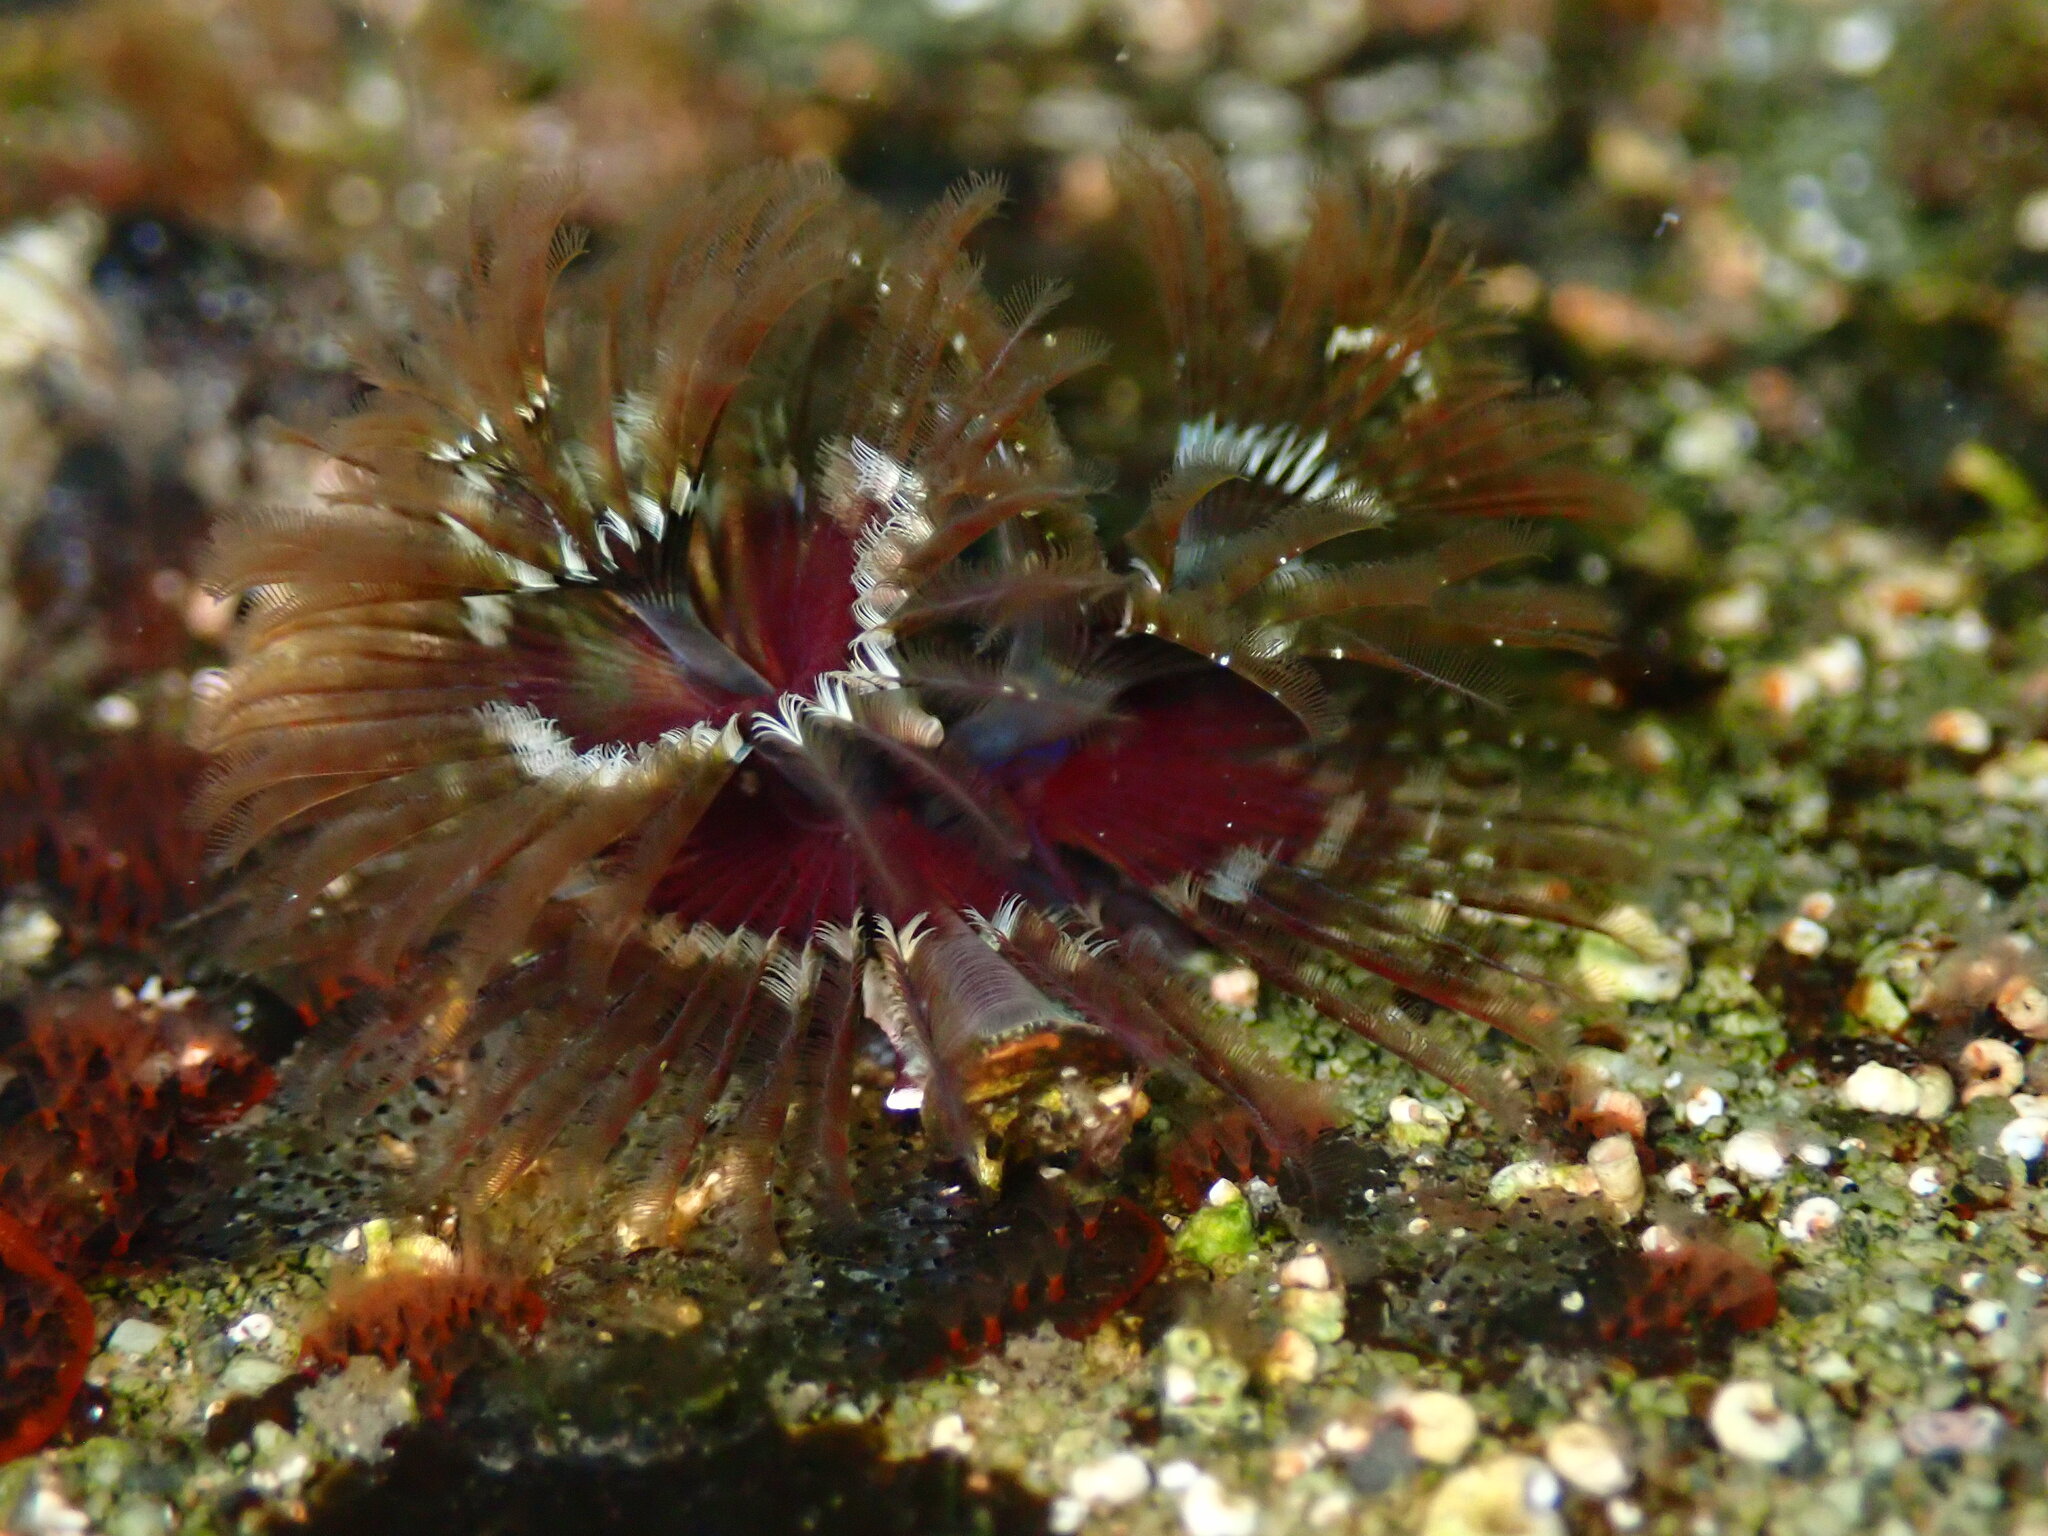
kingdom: Animalia
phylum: Annelida
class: Polychaeta
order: Sabellida
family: Serpulidae
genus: Spirobranchus
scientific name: Spirobranchus spinosus
